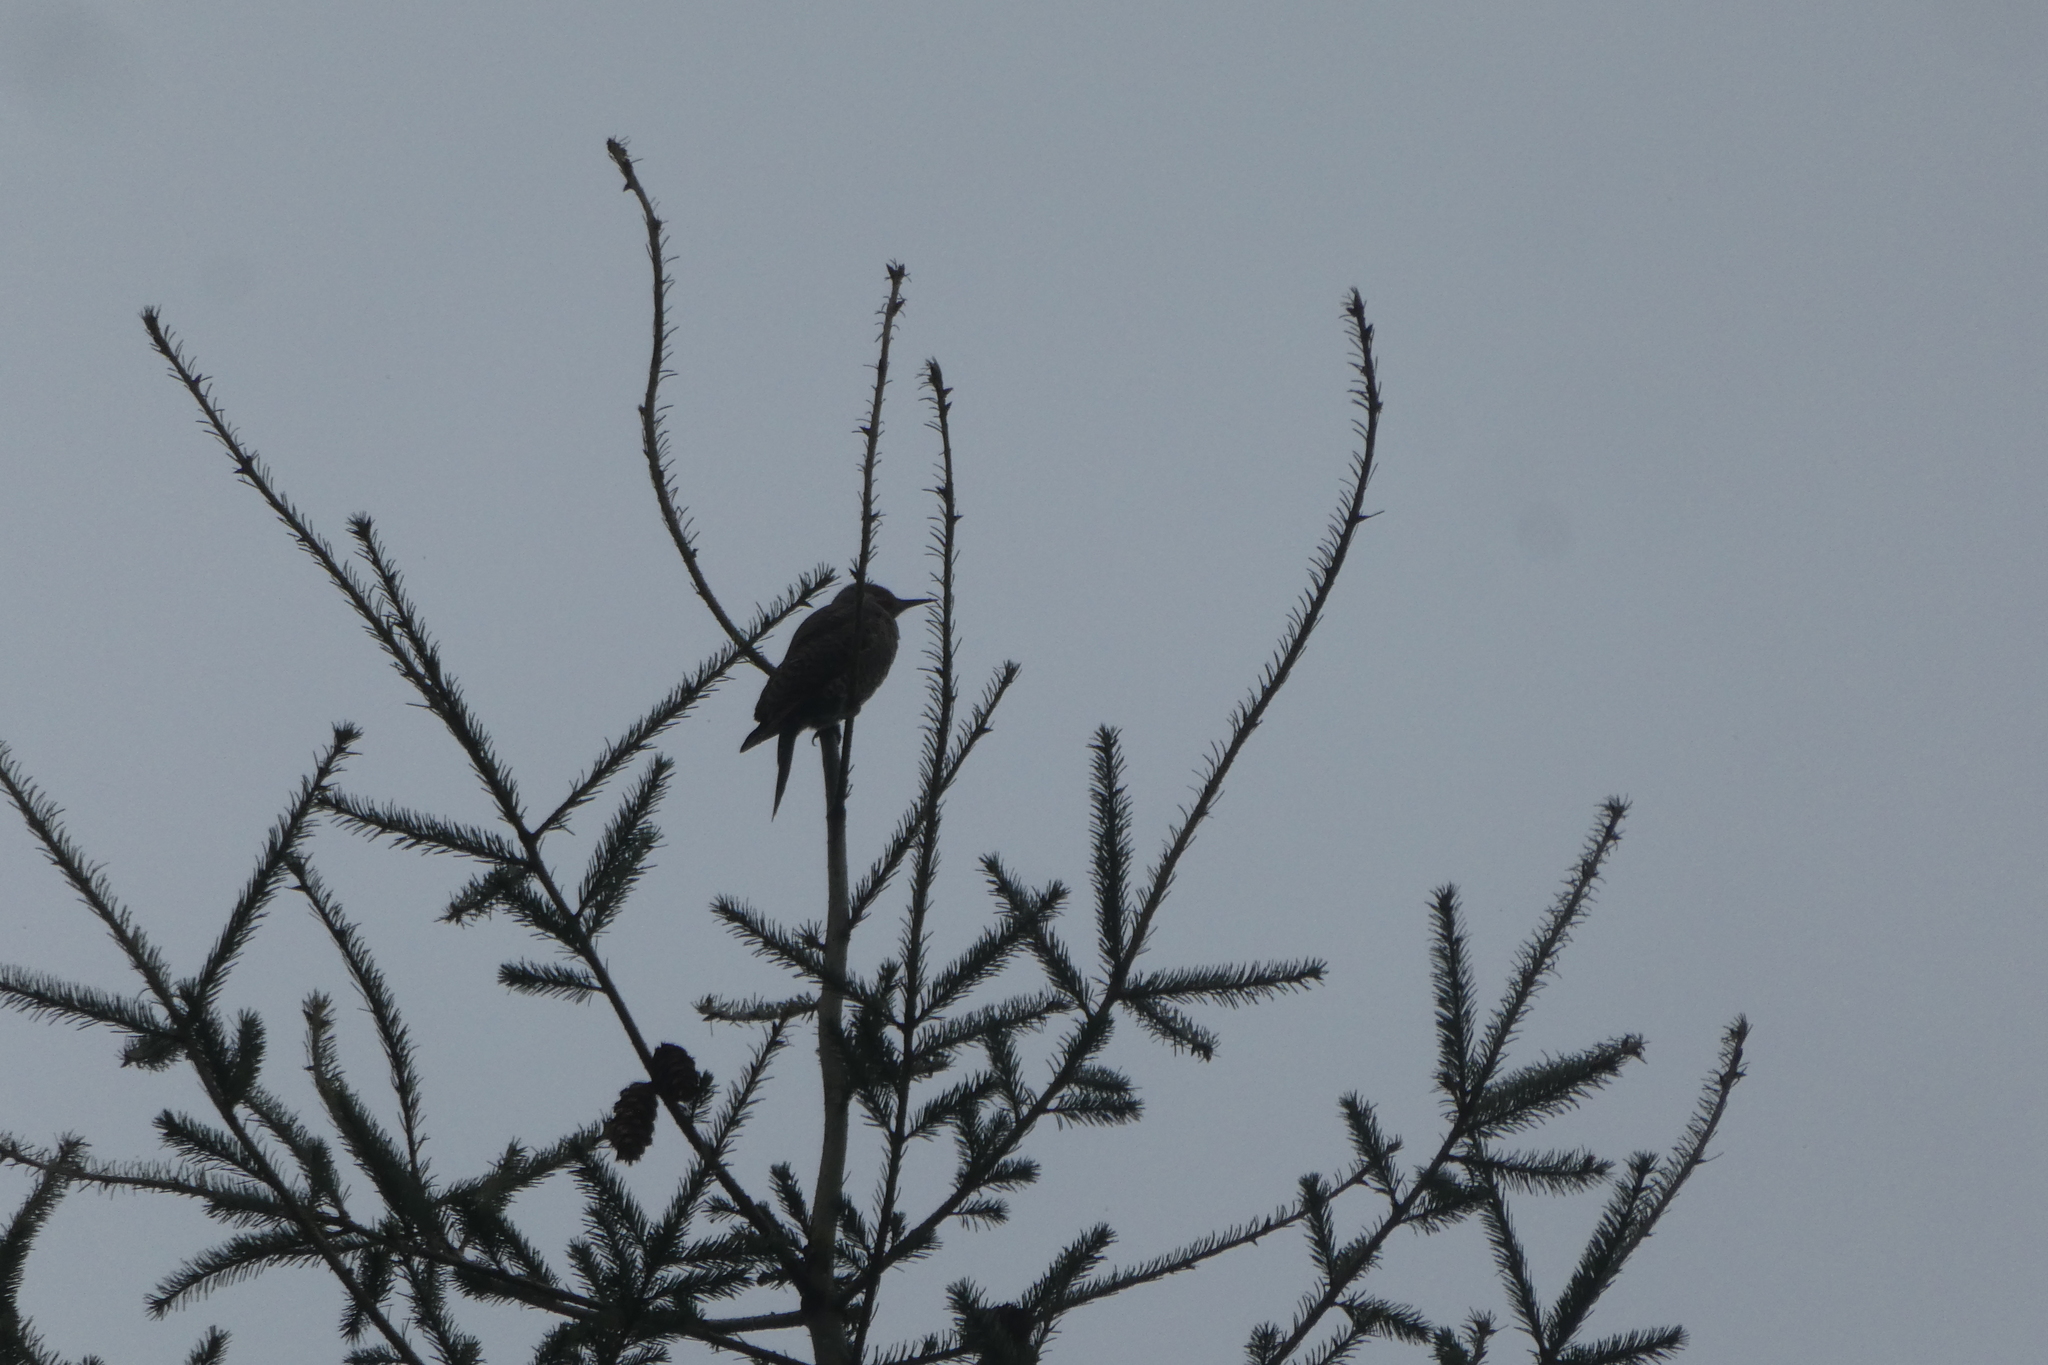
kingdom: Animalia
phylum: Chordata
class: Aves
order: Piciformes
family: Picidae
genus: Colaptes
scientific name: Colaptes auratus
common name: Northern flicker
